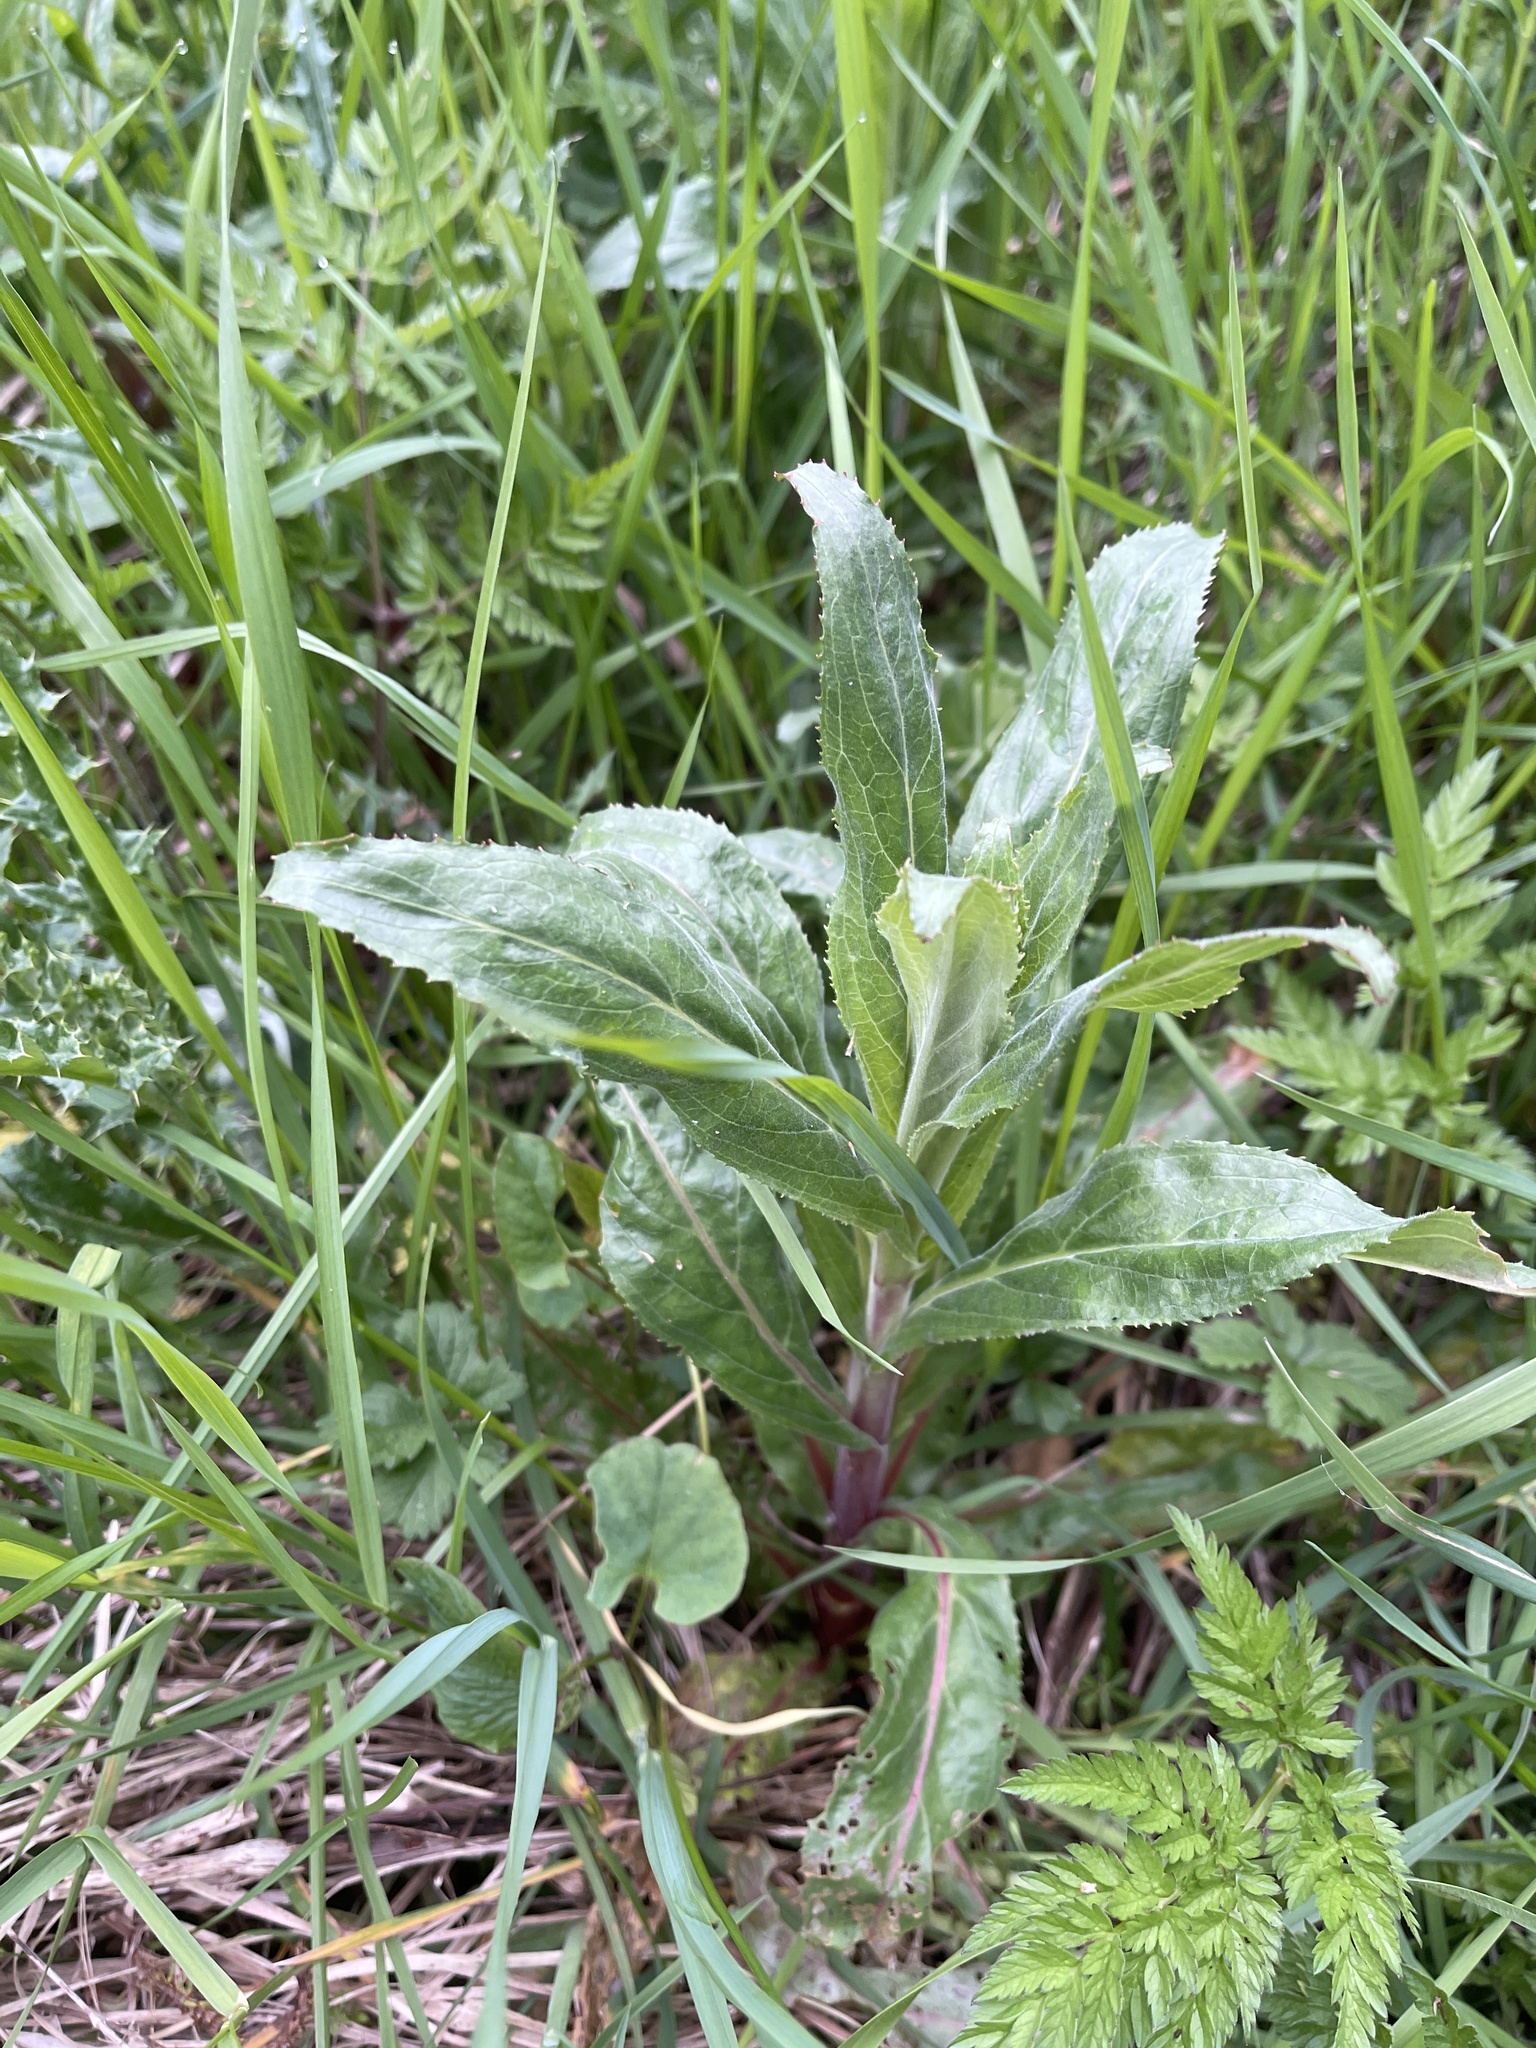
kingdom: Plantae
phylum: Tracheophyta
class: Magnoliopsida
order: Myrtales
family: Onagraceae
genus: Epilobium
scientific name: Epilobium hirsutum
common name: Great willowherb
